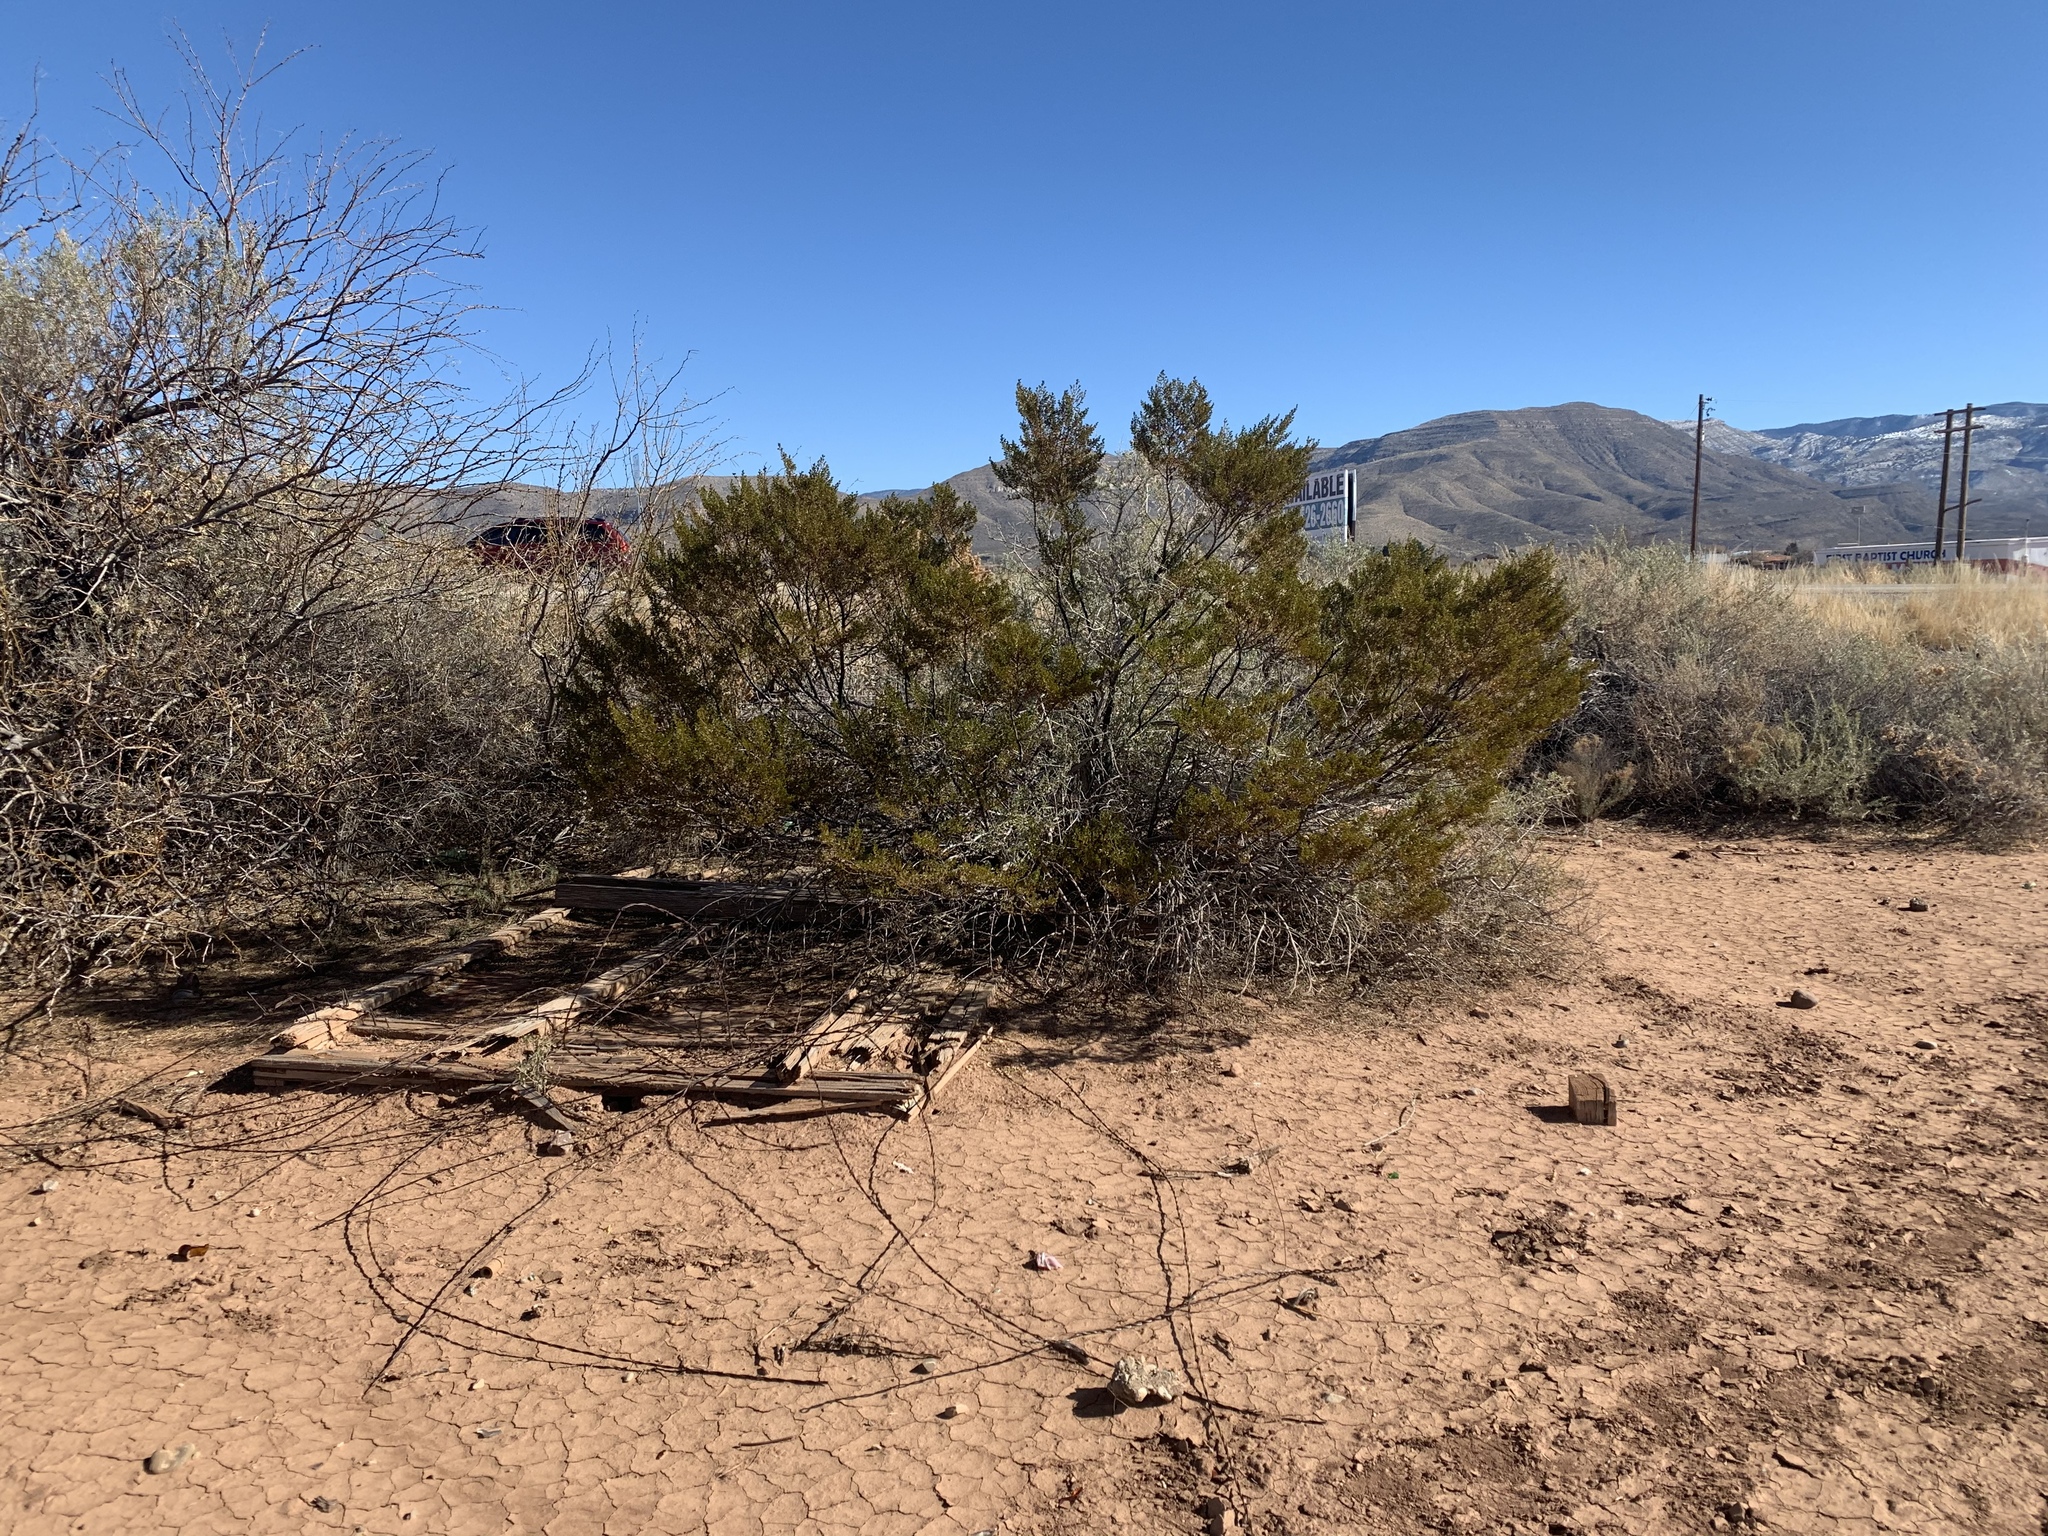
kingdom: Plantae
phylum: Tracheophyta
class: Magnoliopsida
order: Zygophyllales
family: Zygophyllaceae
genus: Larrea
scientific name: Larrea tridentata
